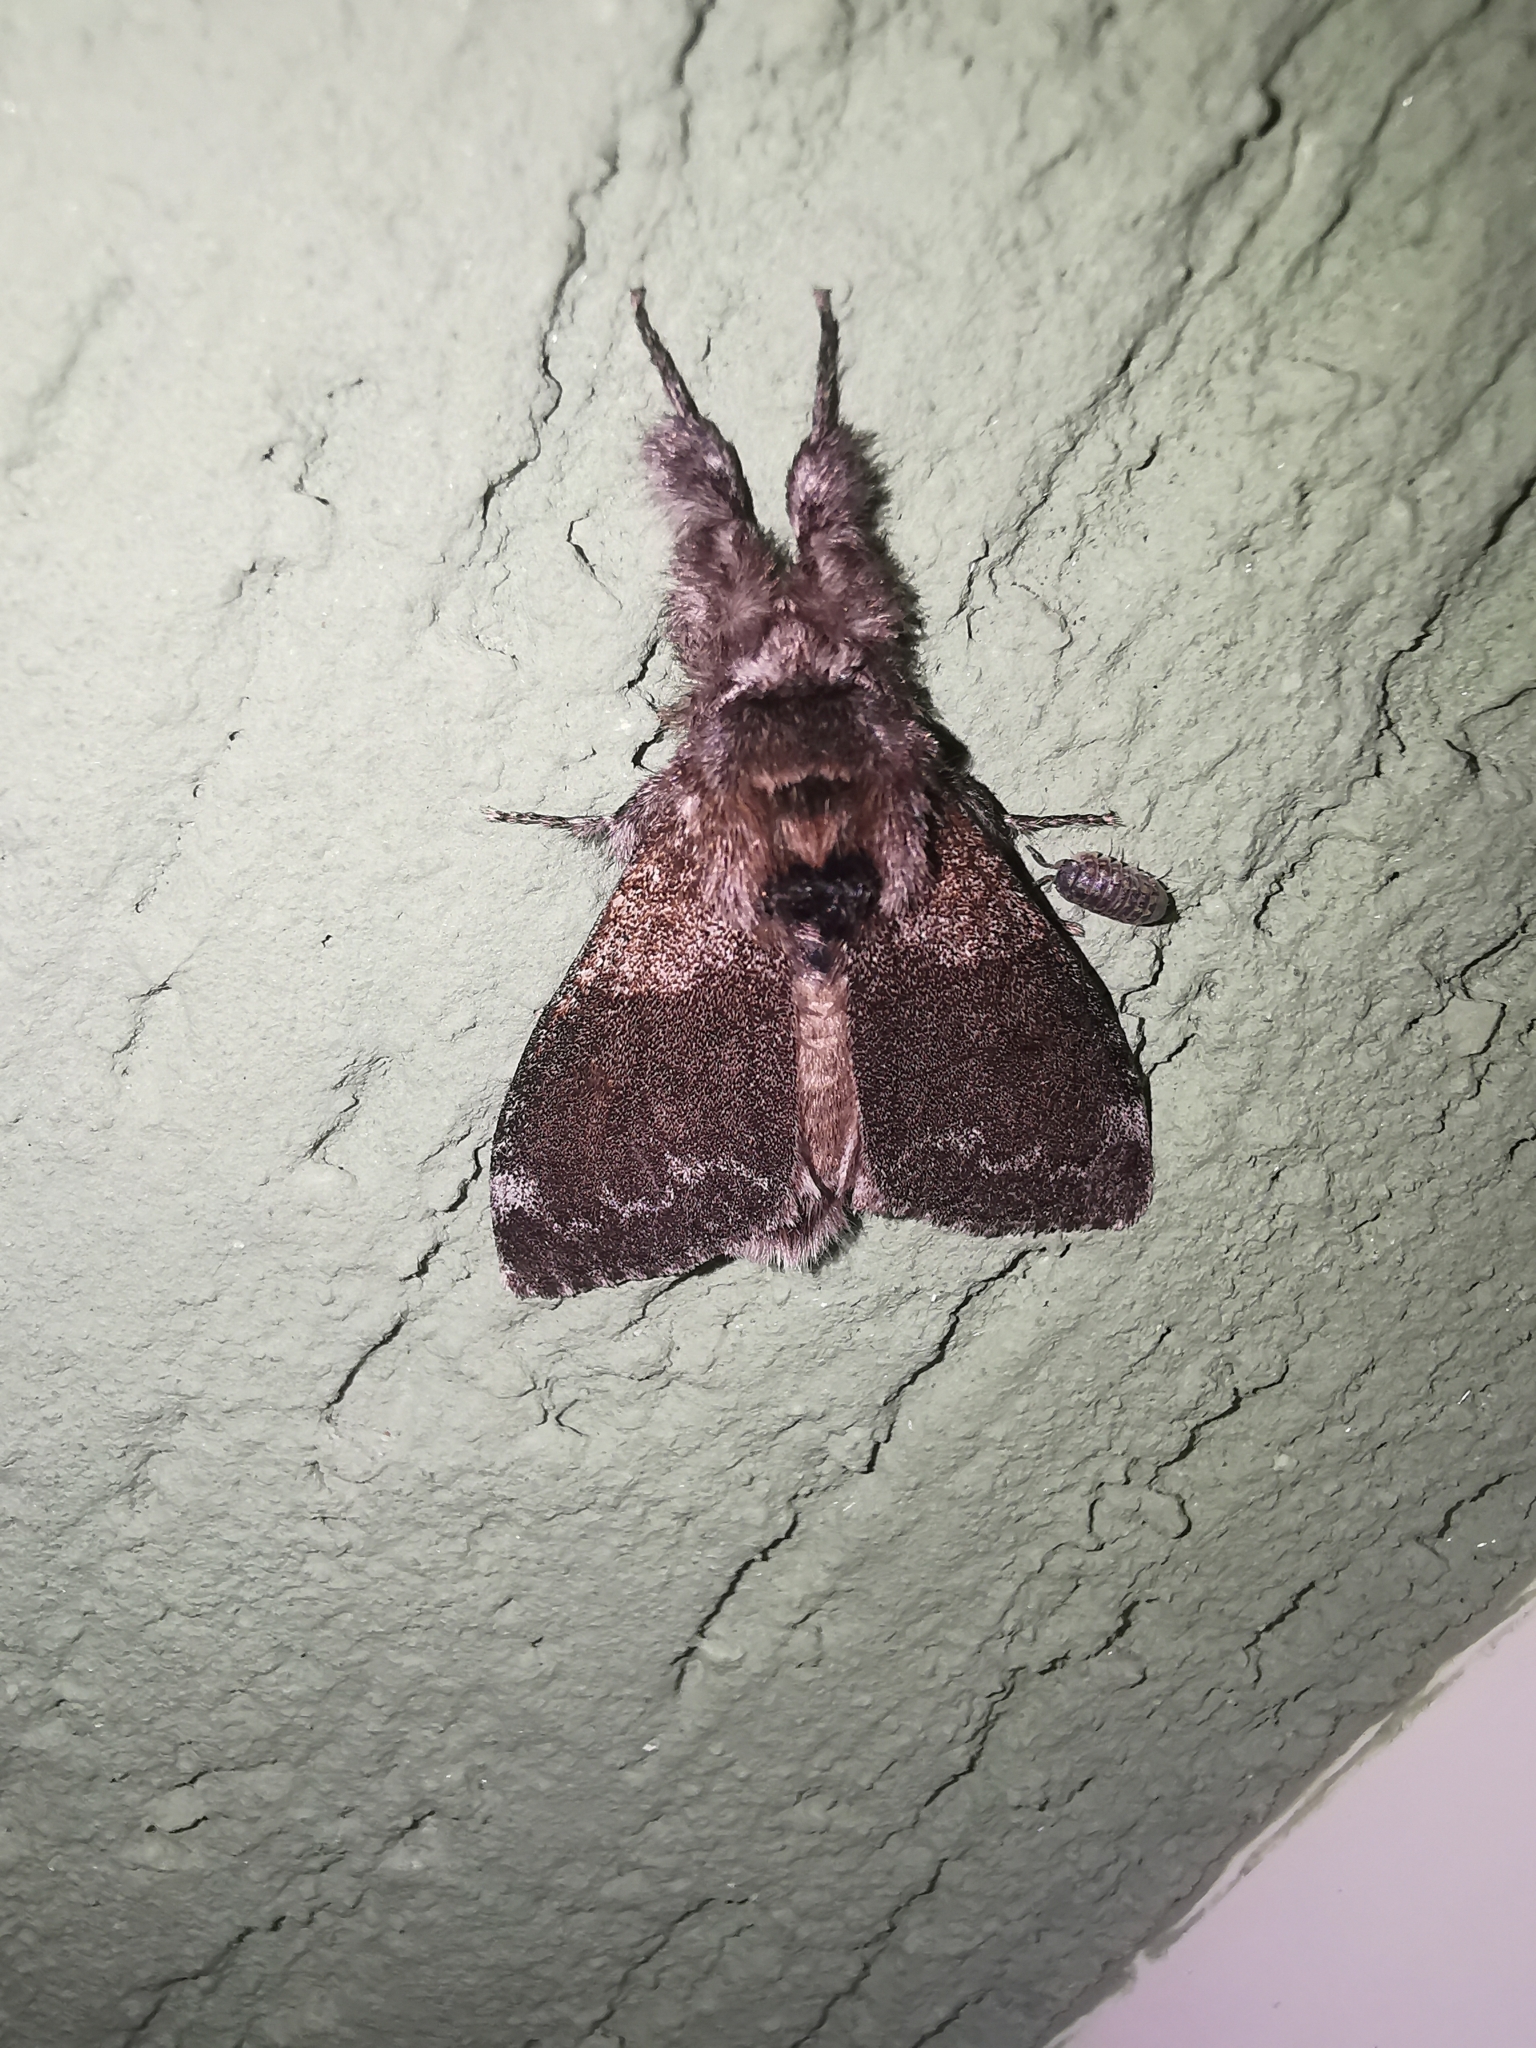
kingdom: Animalia
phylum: Arthropoda
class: Insecta
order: Lepidoptera
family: Erebidae
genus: Calliteara
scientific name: Calliteara pudibunda
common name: Pale tussock
